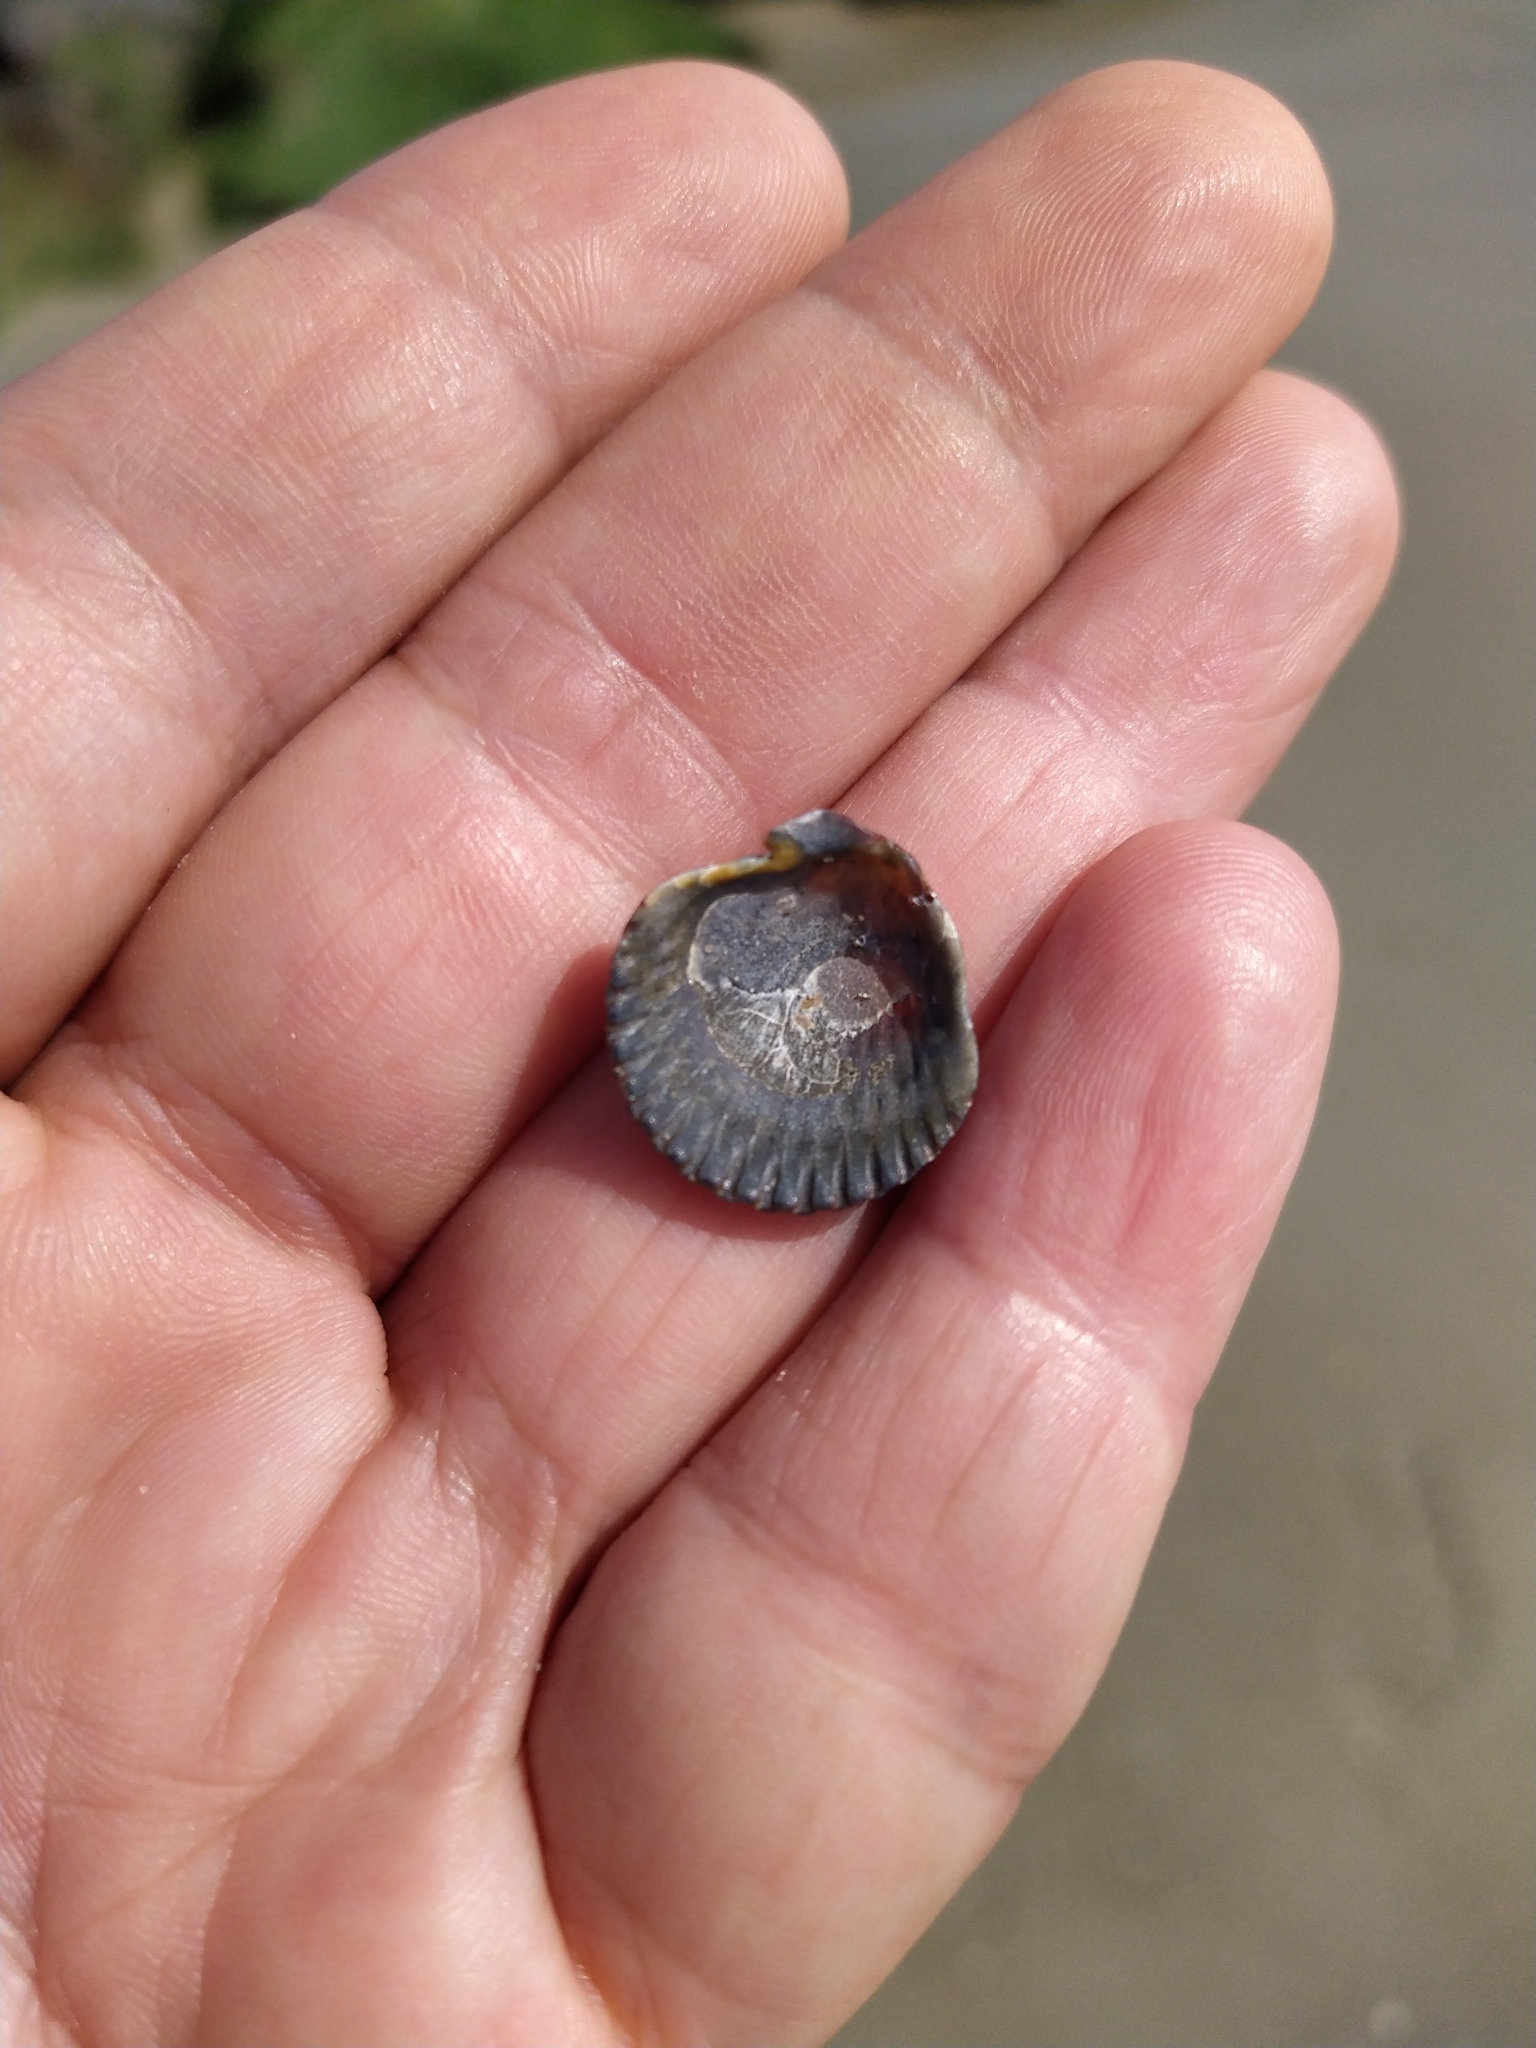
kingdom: Animalia
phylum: Mollusca
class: Bivalvia
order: Pectinida
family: Pectinidae
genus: Argopecten
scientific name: Argopecten irradians
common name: Atlantic bay scallop
